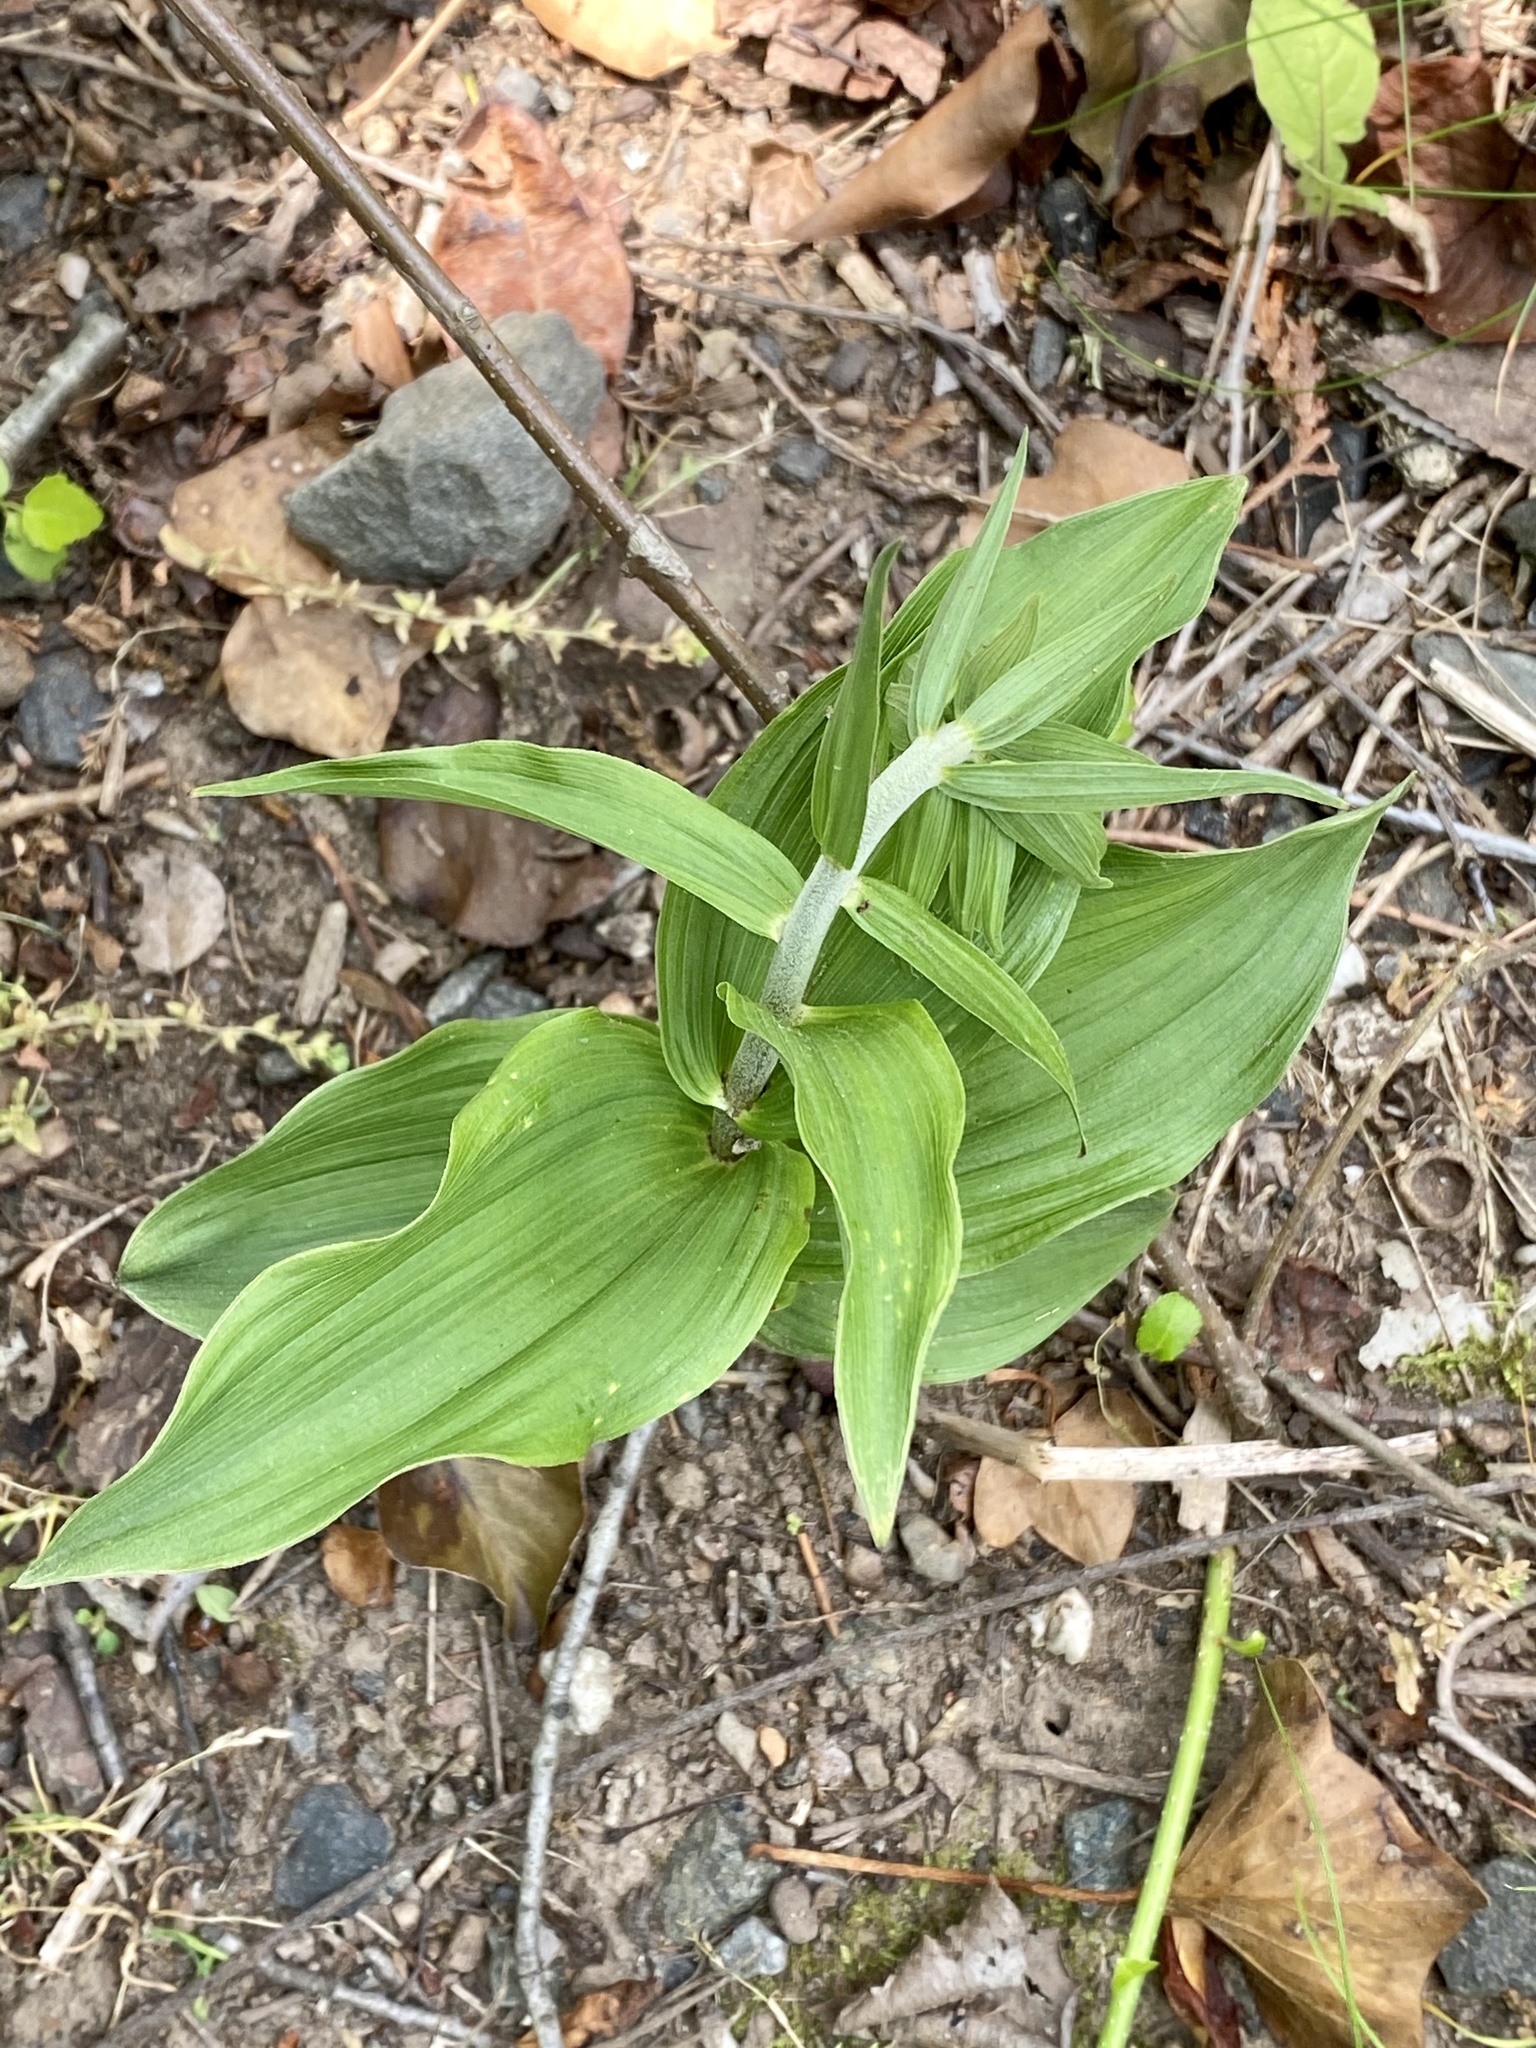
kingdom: Plantae
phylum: Tracheophyta
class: Liliopsida
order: Asparagales
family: Orchidaceae
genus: Epipactis
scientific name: Epipactis helleborine
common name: Broad-leaved helleborine
